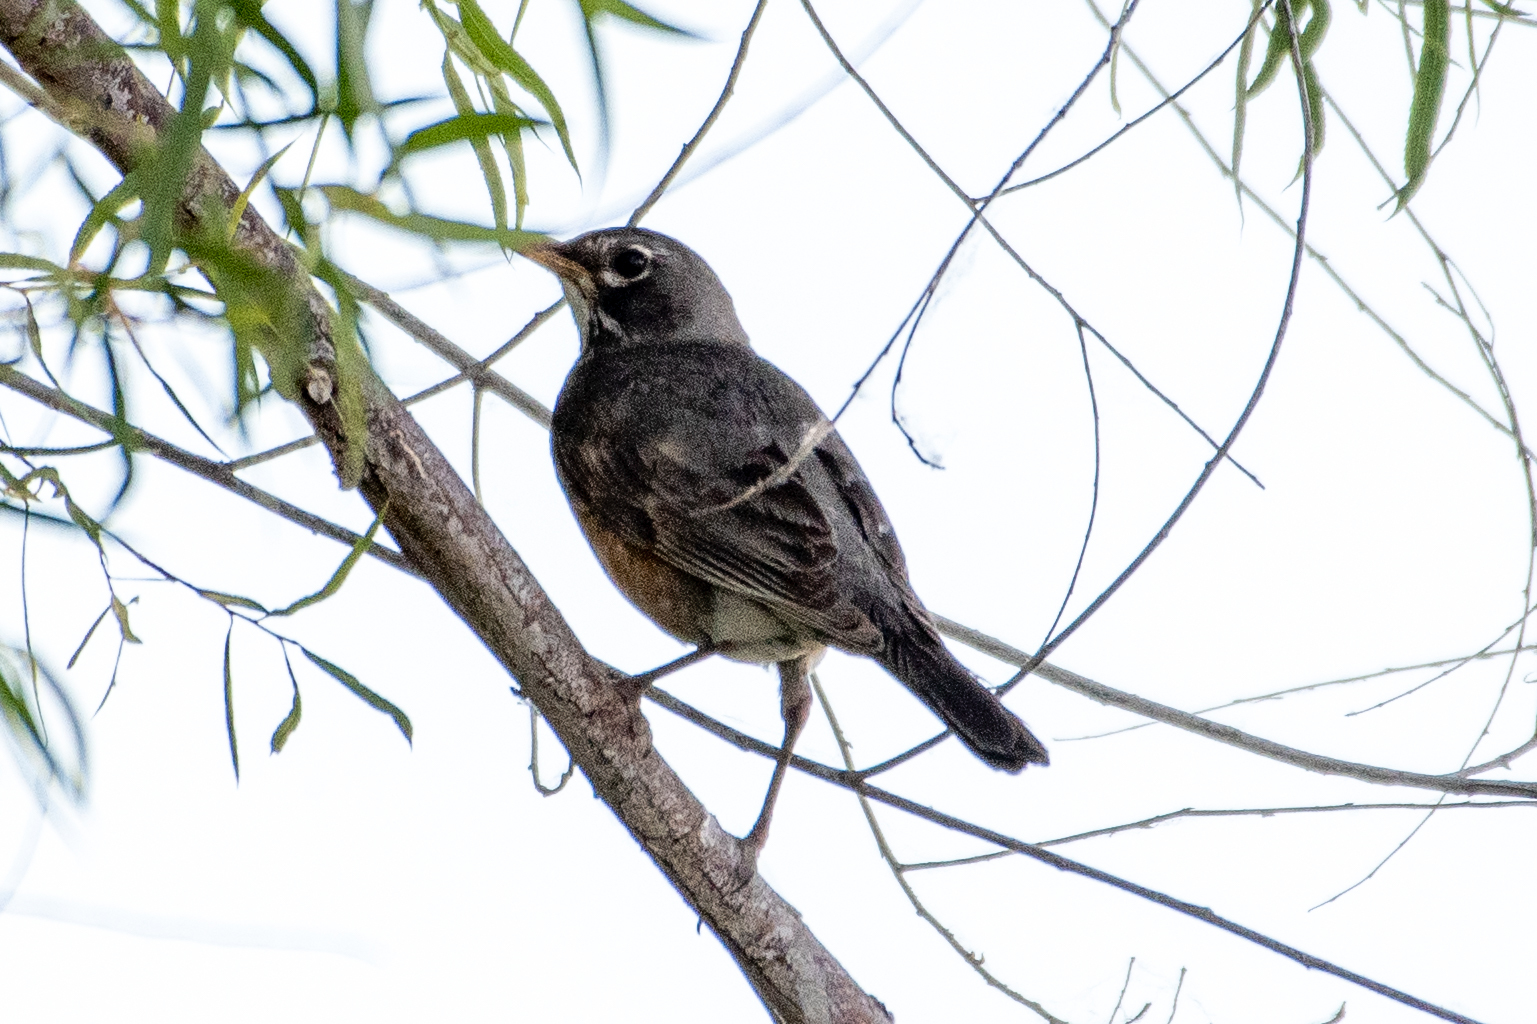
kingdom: Animalia
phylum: Chordata
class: Aves
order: Passeriformes
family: Turdidae
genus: Turdus
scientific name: Turdus migratorius
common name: American robin
